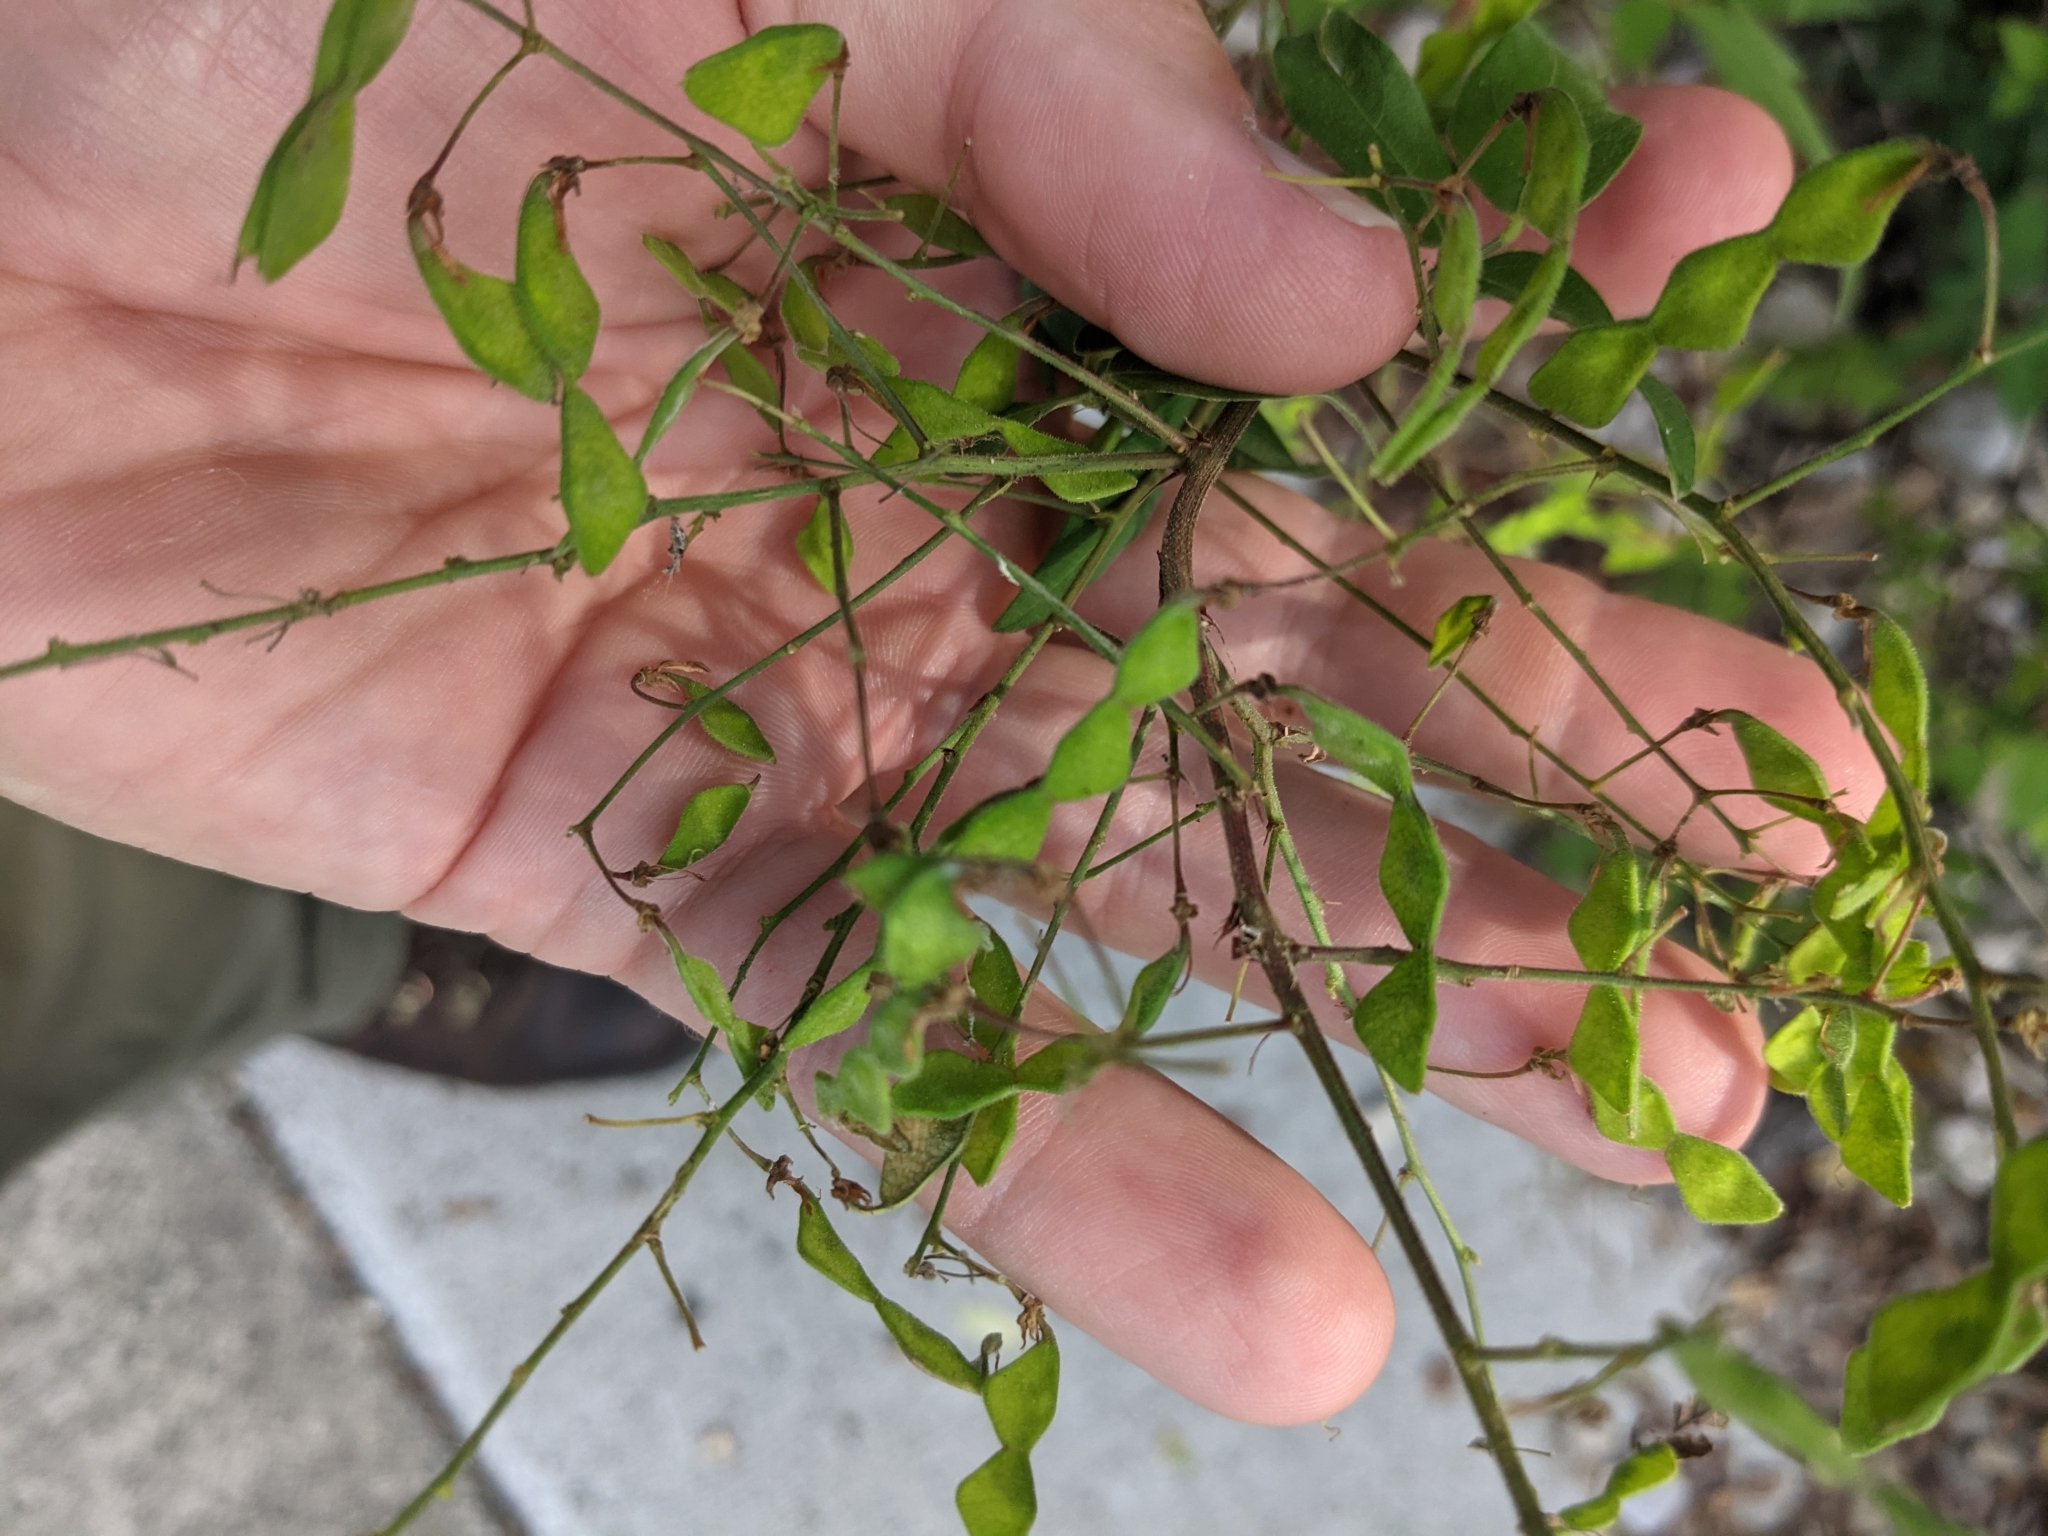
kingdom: Plantae
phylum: Tracheophyta
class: Magnoliopsida
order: Fabales
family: Fabaceae
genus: Desmodium
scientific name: Desmodium paniculatum
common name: Panicled tick-clover
